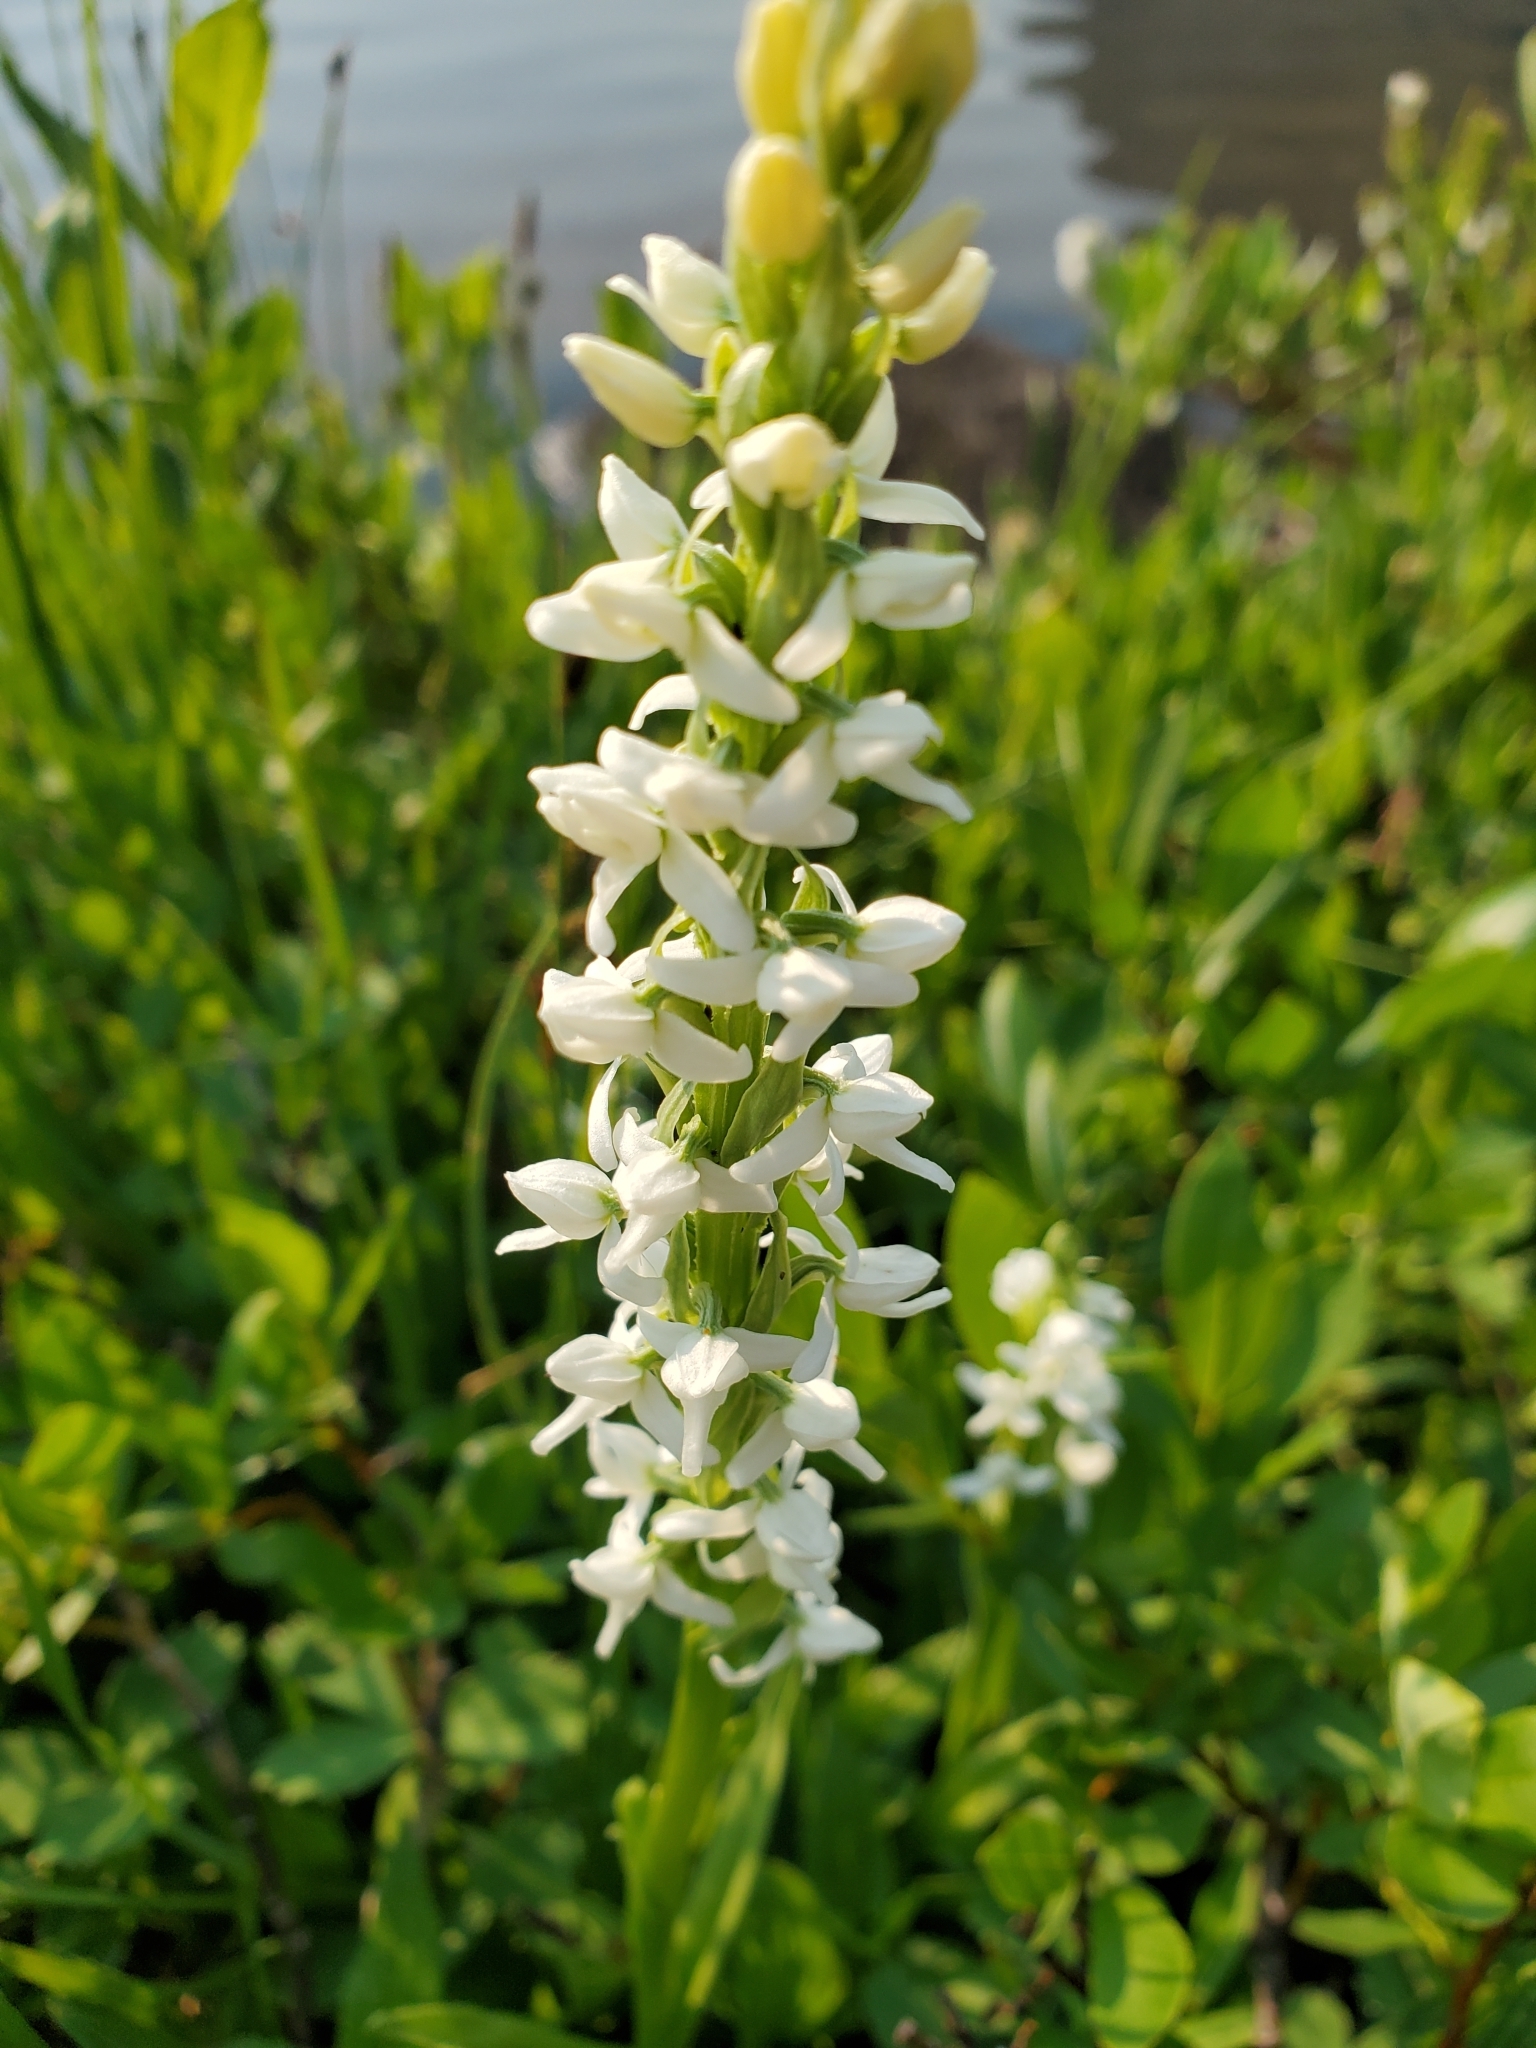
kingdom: Plantae
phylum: Tracheophyta
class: Liliopsida
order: Asparagales
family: Orchidaceae
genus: Platanthera
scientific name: Platanthera dilatata
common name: Bog candles
